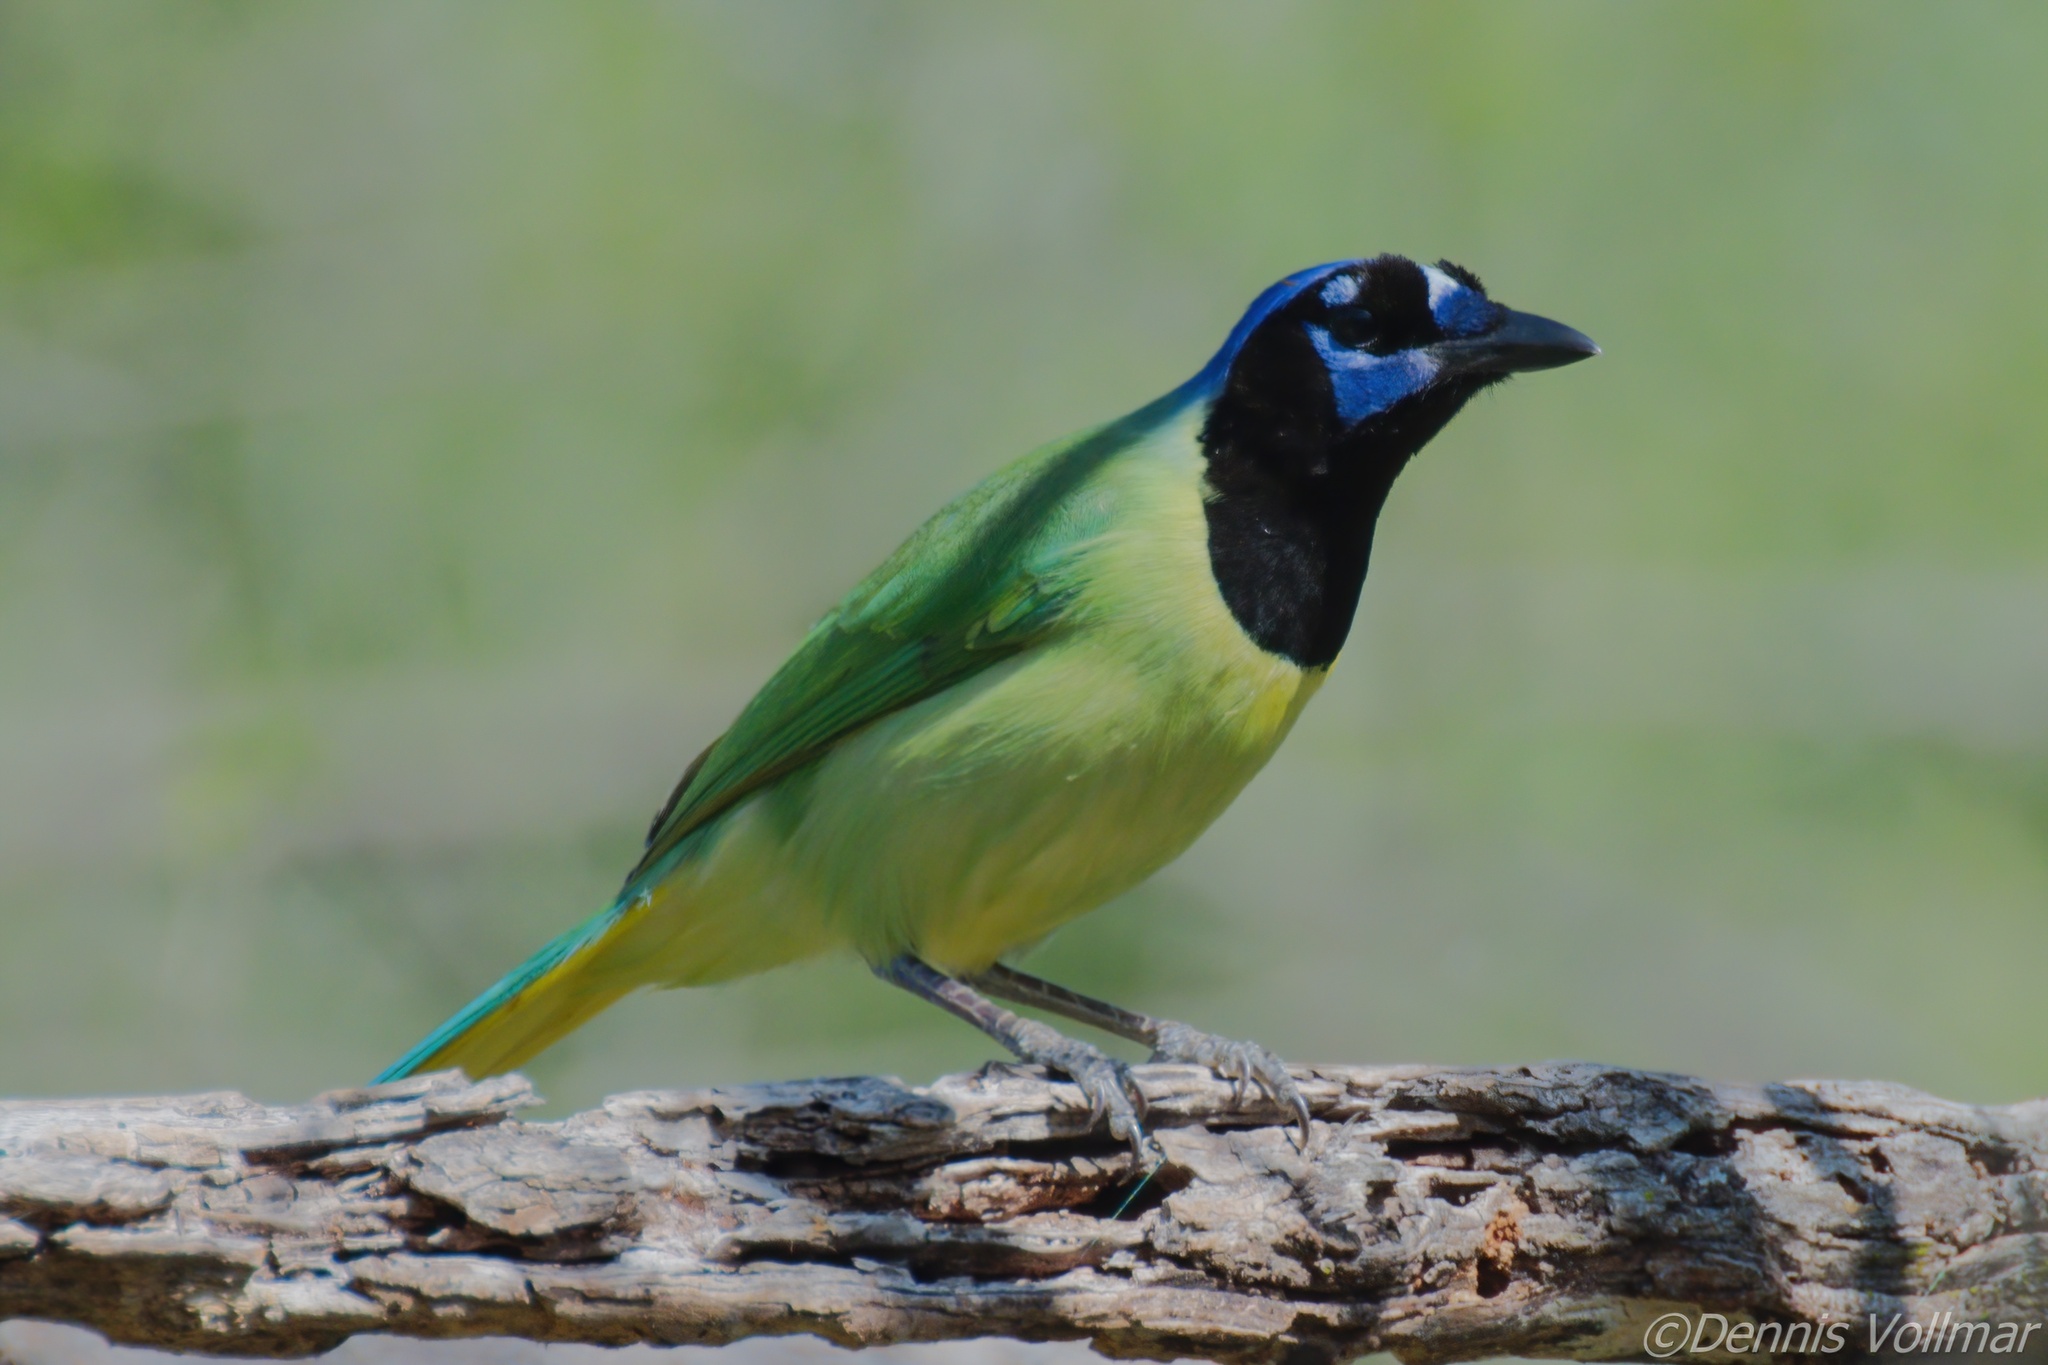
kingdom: Animalia
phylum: Chordata
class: Aves
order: Passeriformes
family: Corvidae
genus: Cyanocorax
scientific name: Cyanocorax yncas
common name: Green jay
